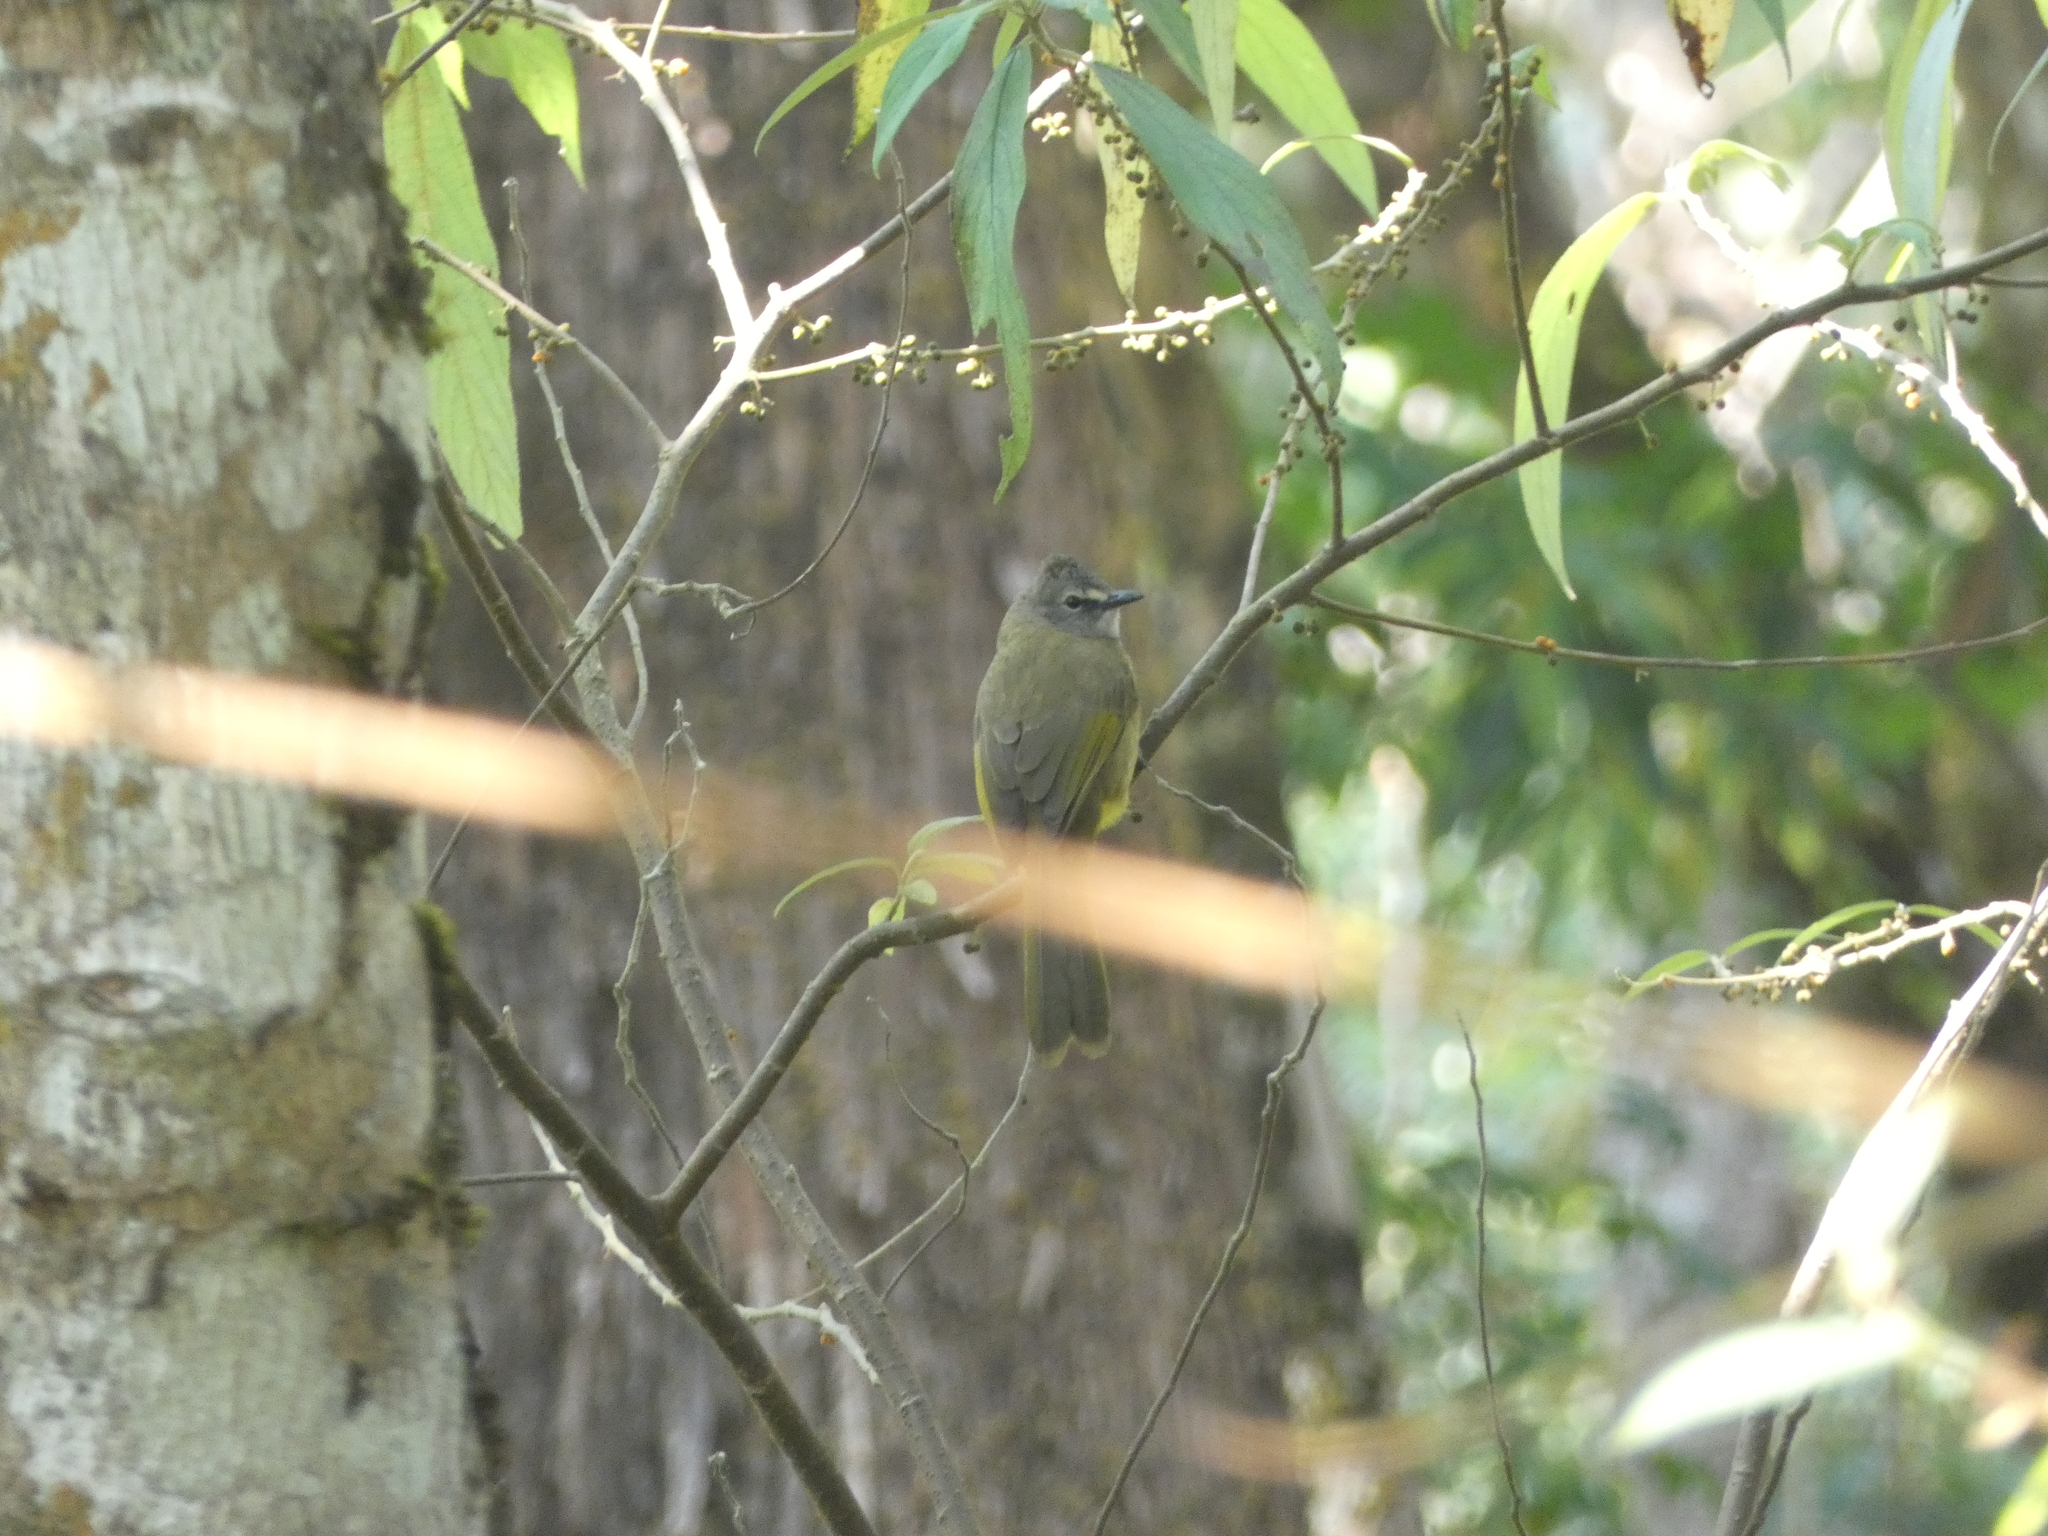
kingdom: Animalia
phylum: Chordata
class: Aves
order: Passeriformes
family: Pycnonotidae
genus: Pycnonotus
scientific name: Pycnonotus flavescens
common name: Flavescent bulbul
